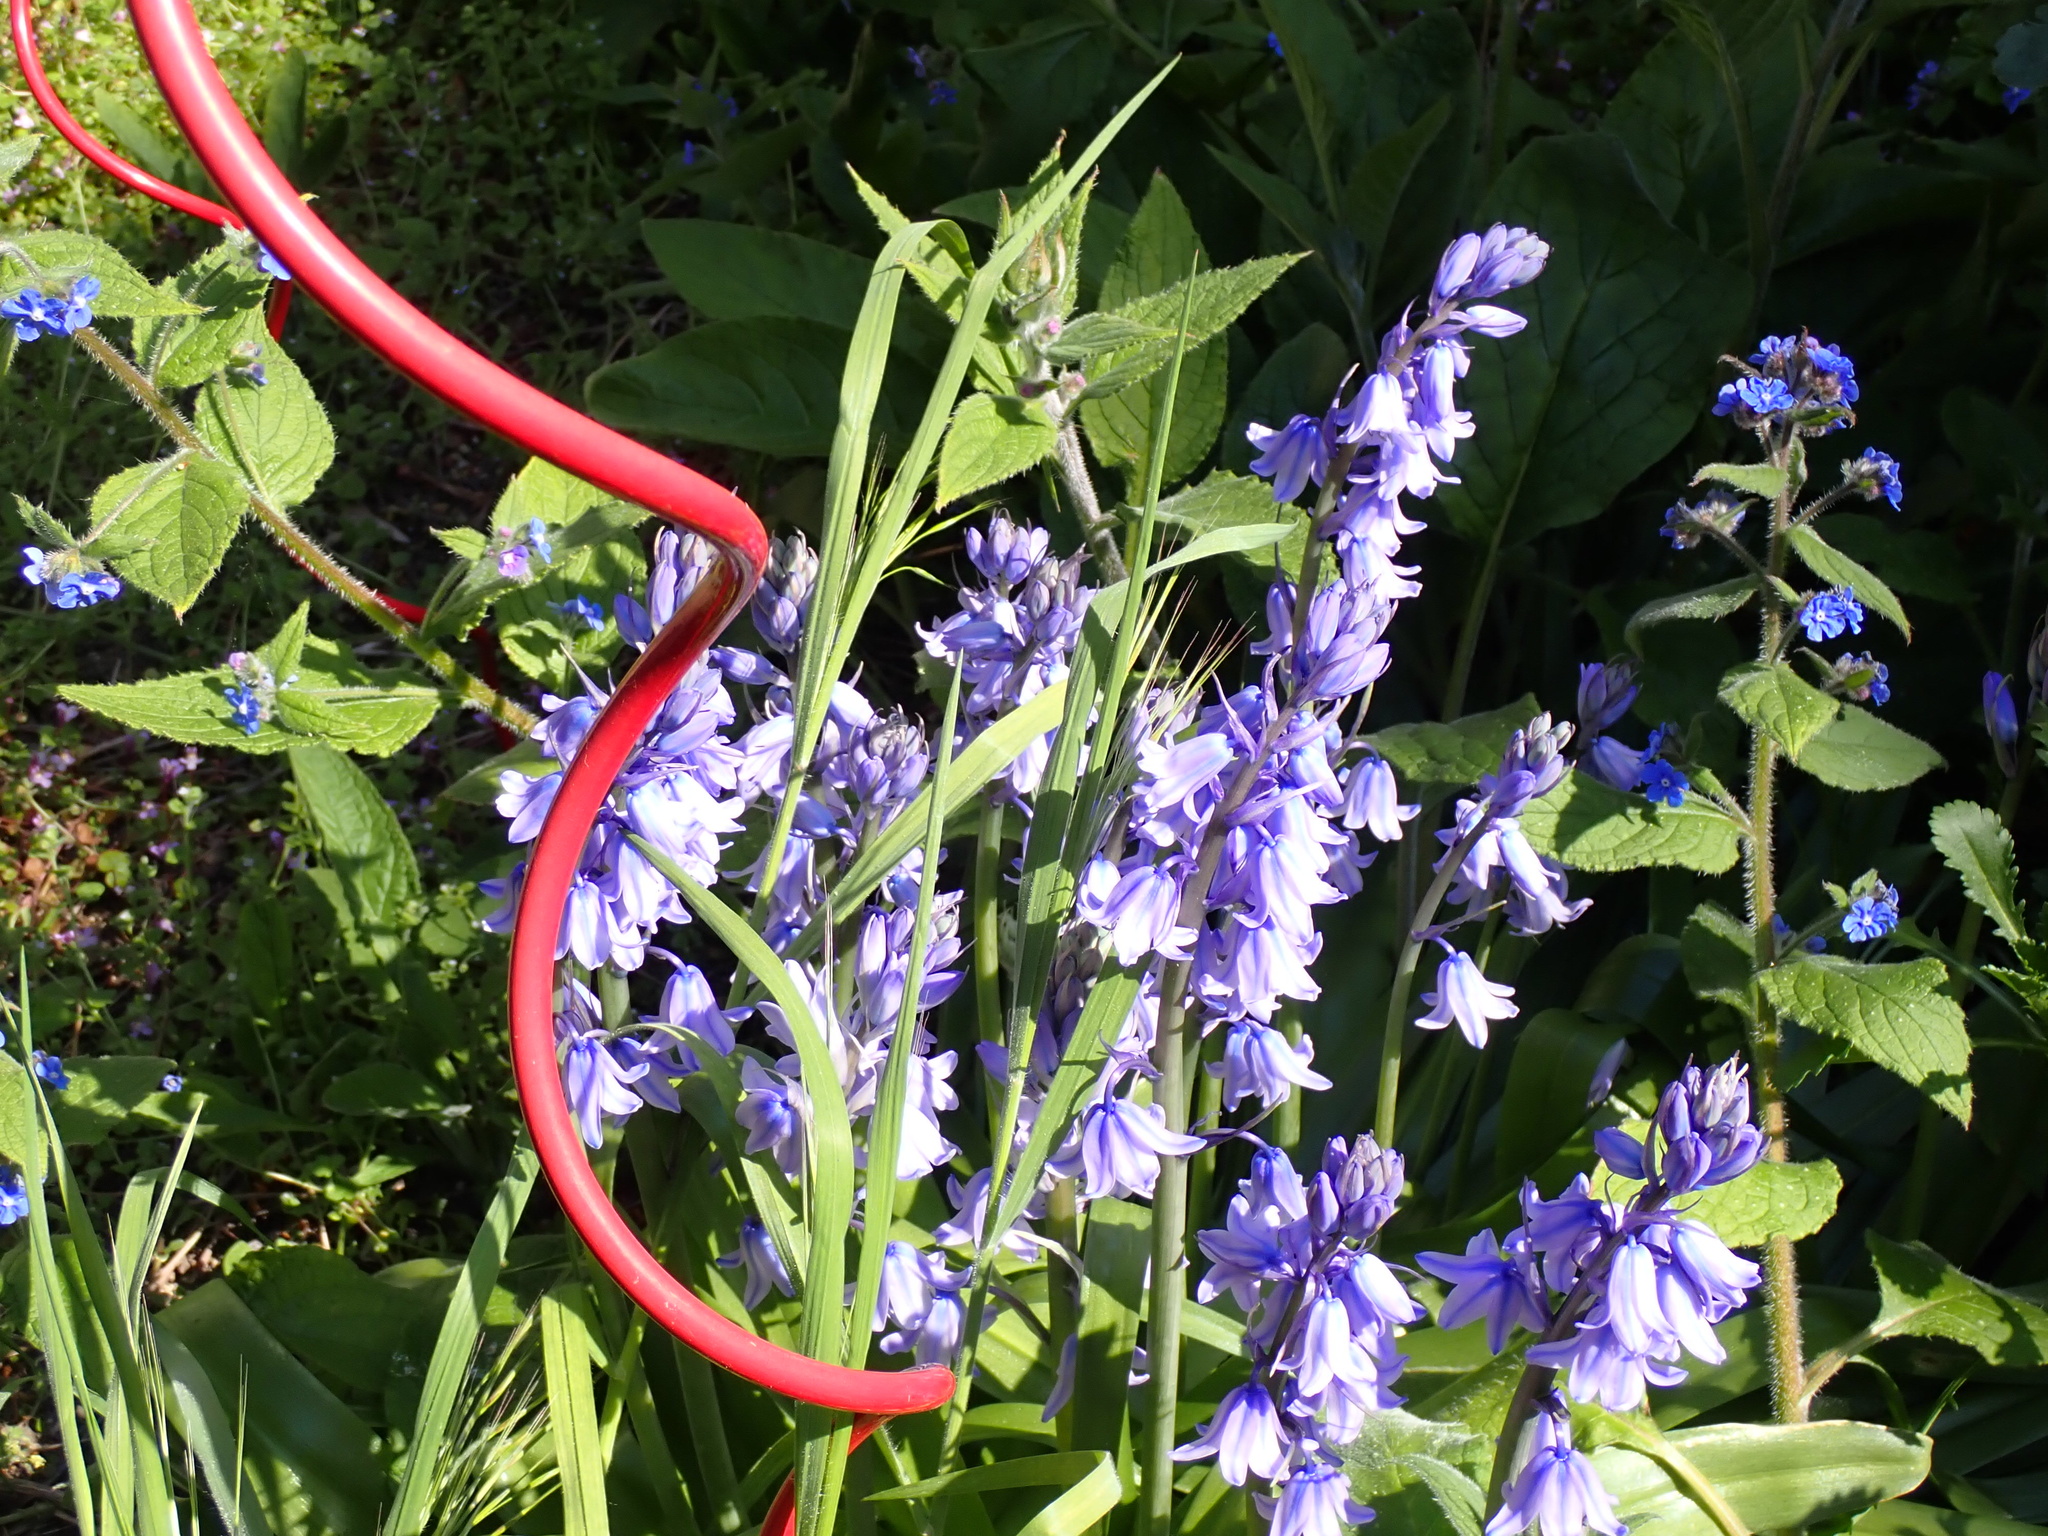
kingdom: Plantae
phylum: Tracheophyta
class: Liliopsida
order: Asparagales
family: Asparagaceae
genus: Hyacinthoides
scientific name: Hyacinthoides hispanica
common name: Spanish bluebell
